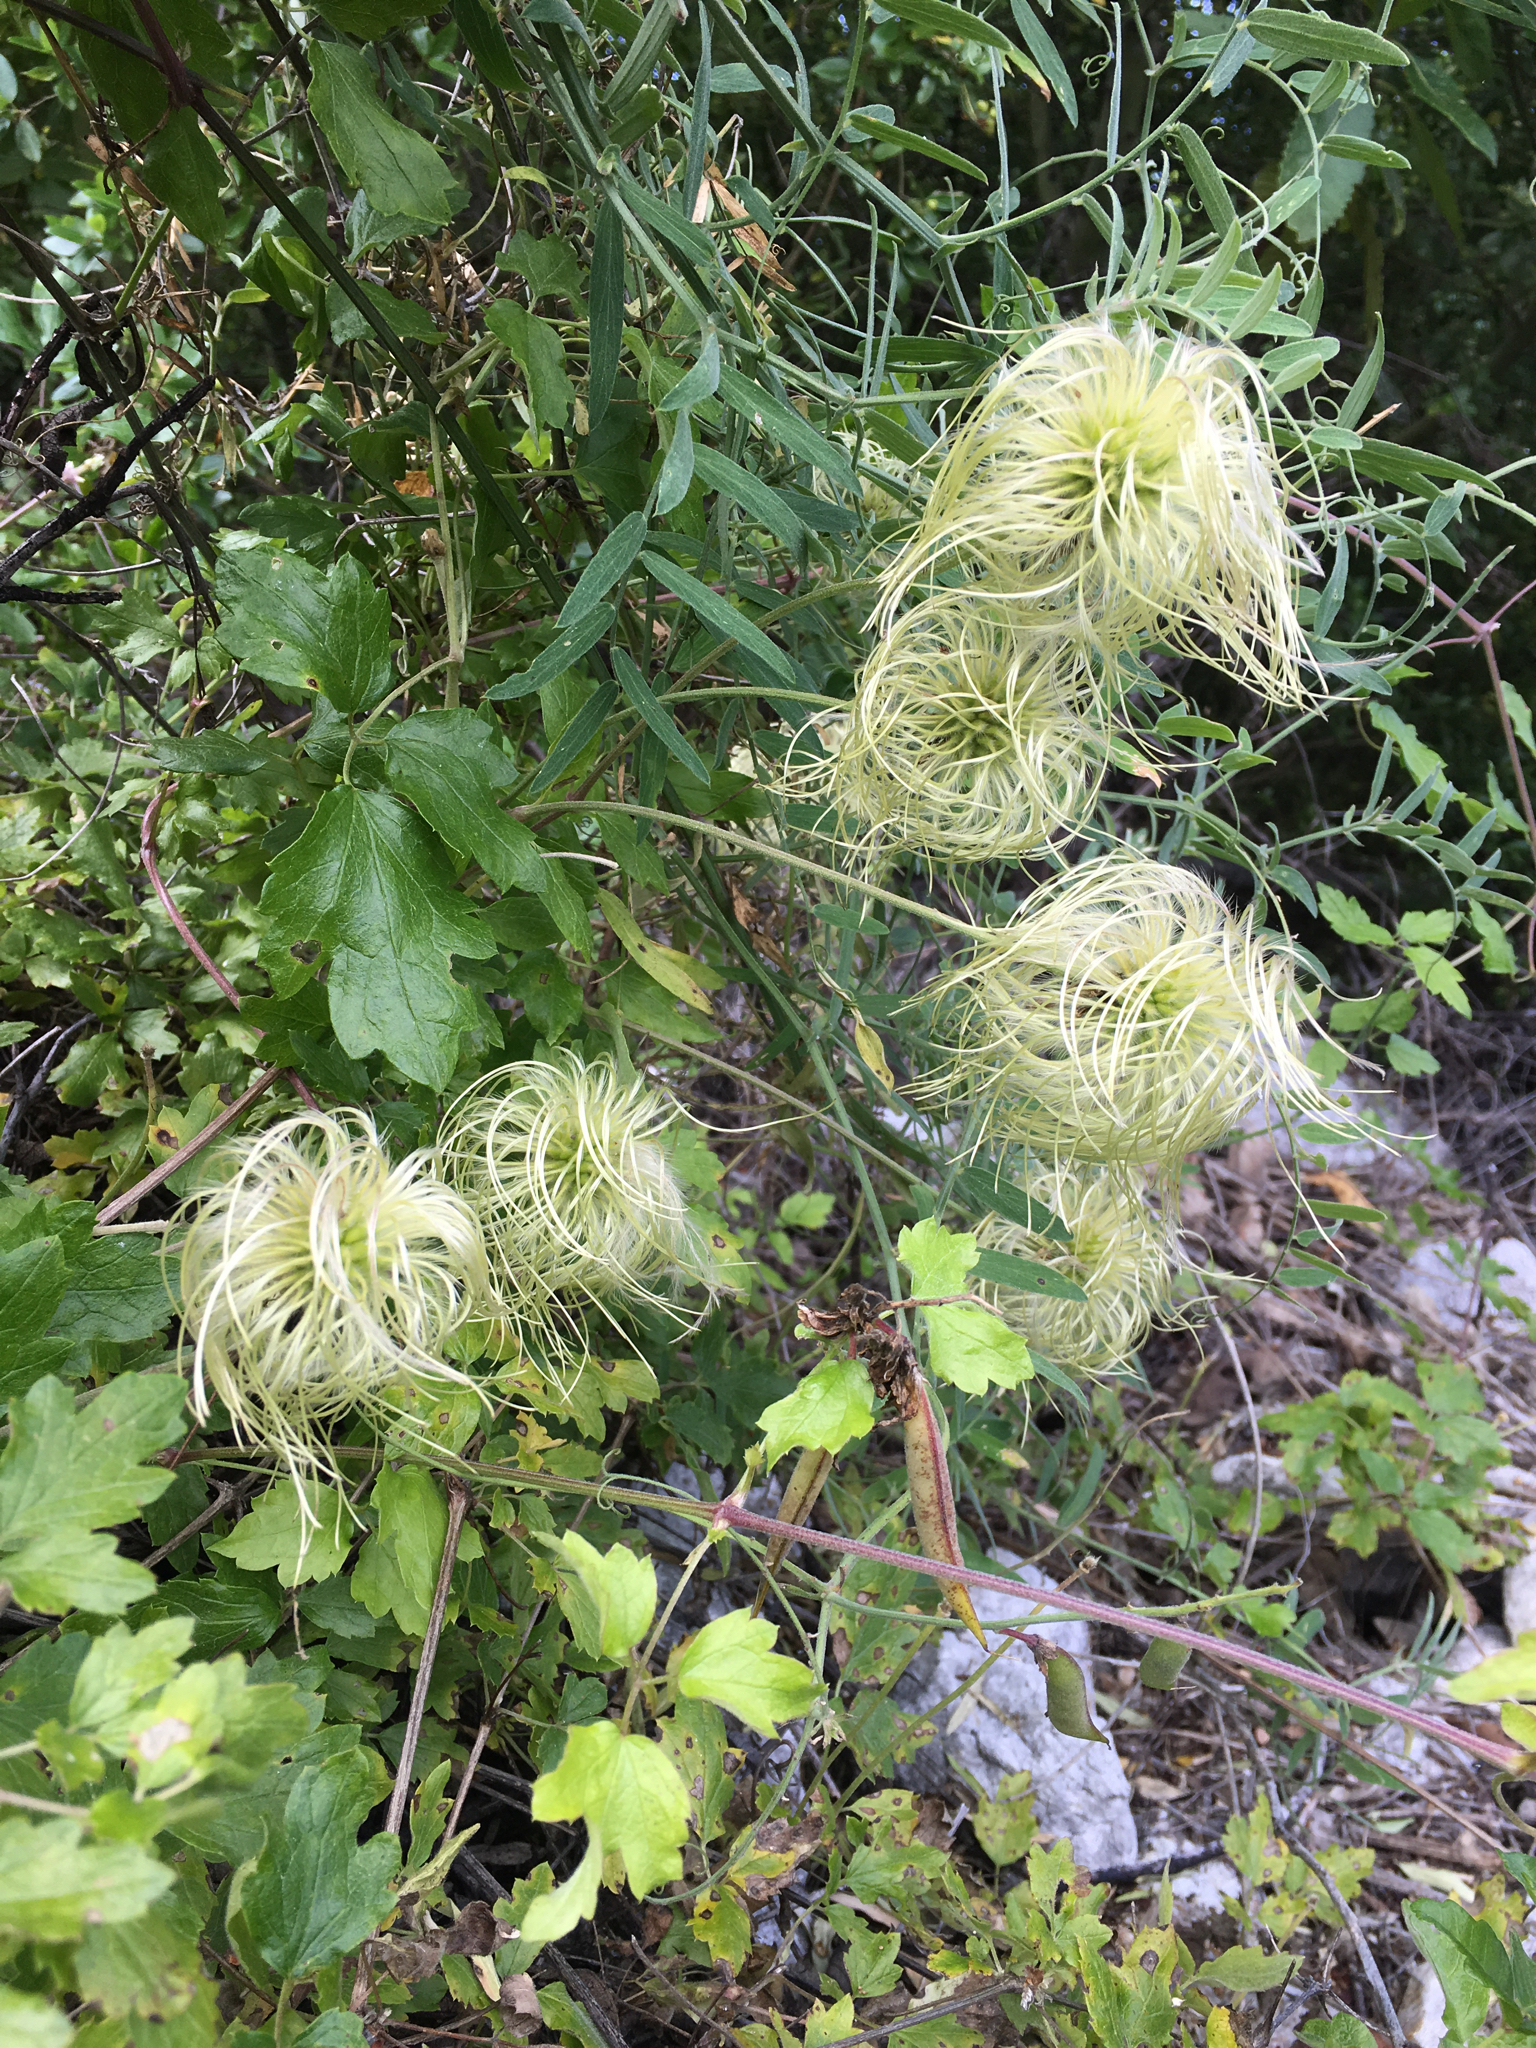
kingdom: Plantae
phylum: Tracheophyta
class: Magnoliopsida
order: Ranunculales
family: Ranunculaceae
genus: Clematis
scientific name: Clematis lasiantha
